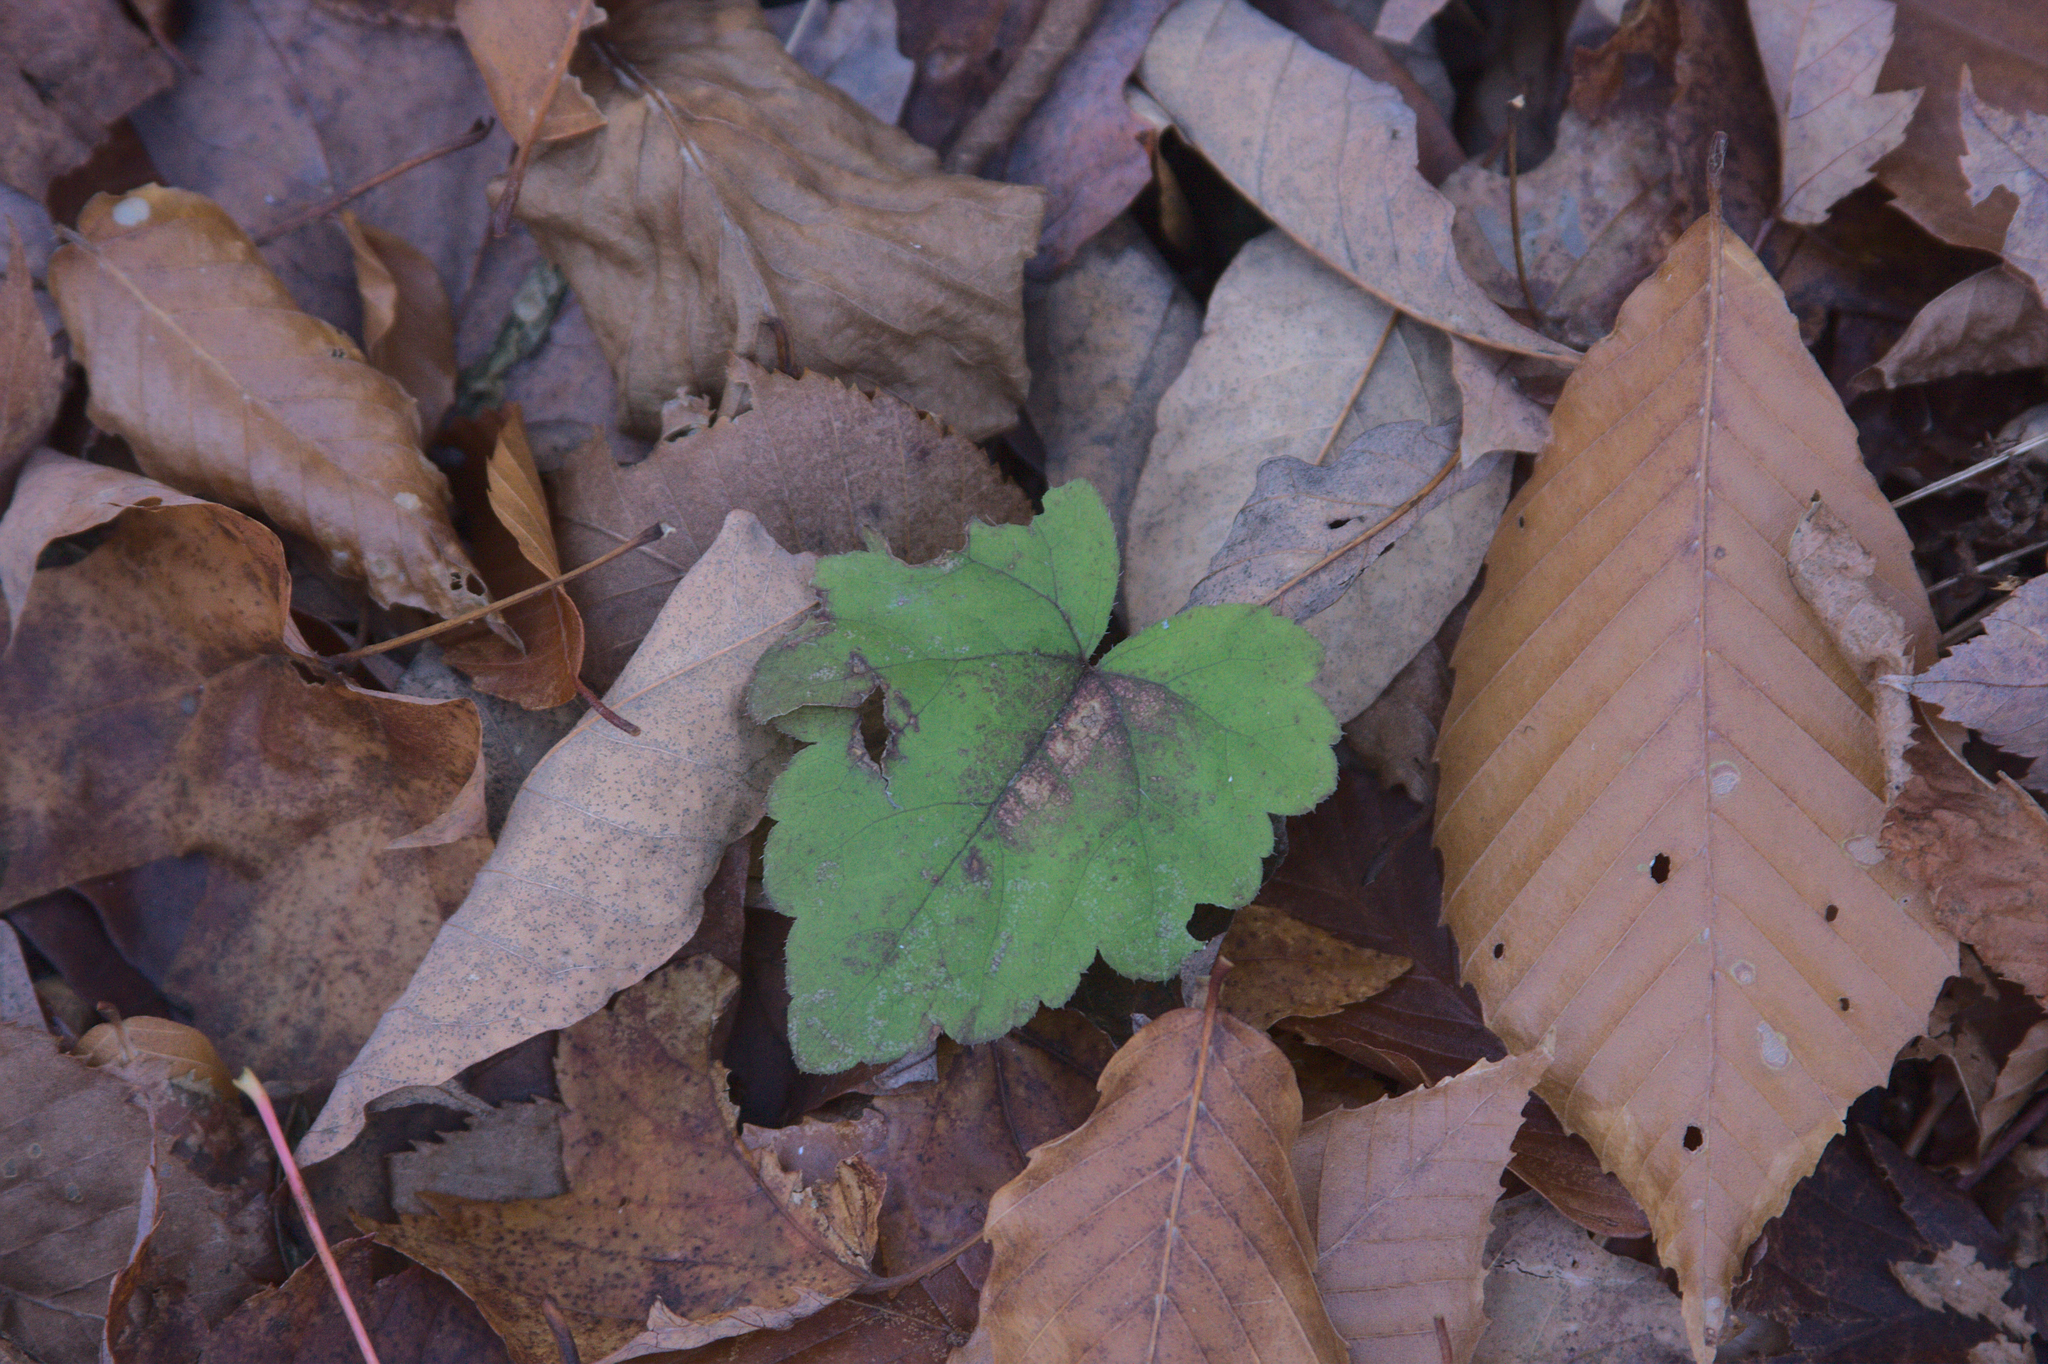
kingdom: Plantae
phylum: Tracheophyta
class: Magnoliopsida
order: Saxifragales
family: Saxifragaceae
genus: Tiarella
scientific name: Tiarella stolonifera
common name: Stoloniferous foamflower
